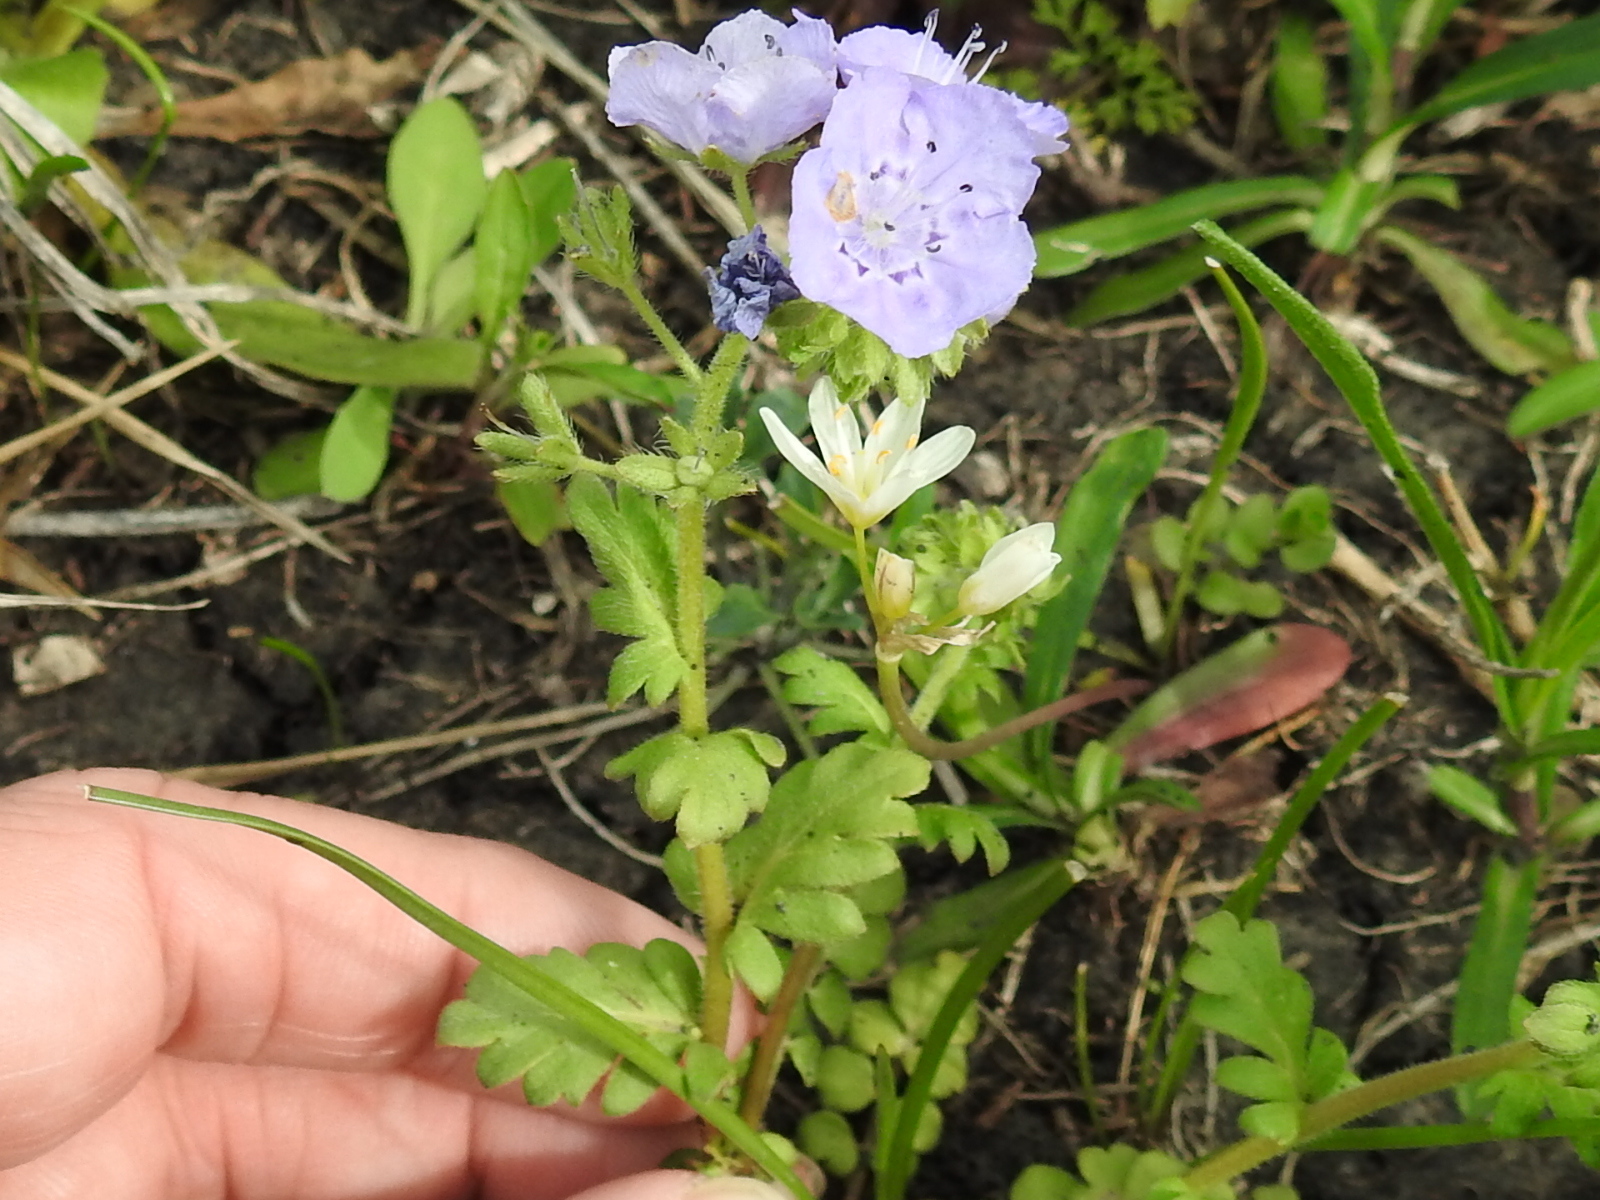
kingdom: Plantae
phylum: Tracheophyta
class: Magnoliopsida
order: Boraginales
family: Hydrophyllaceae
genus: Phacelia
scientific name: Phacelia strictiflora
